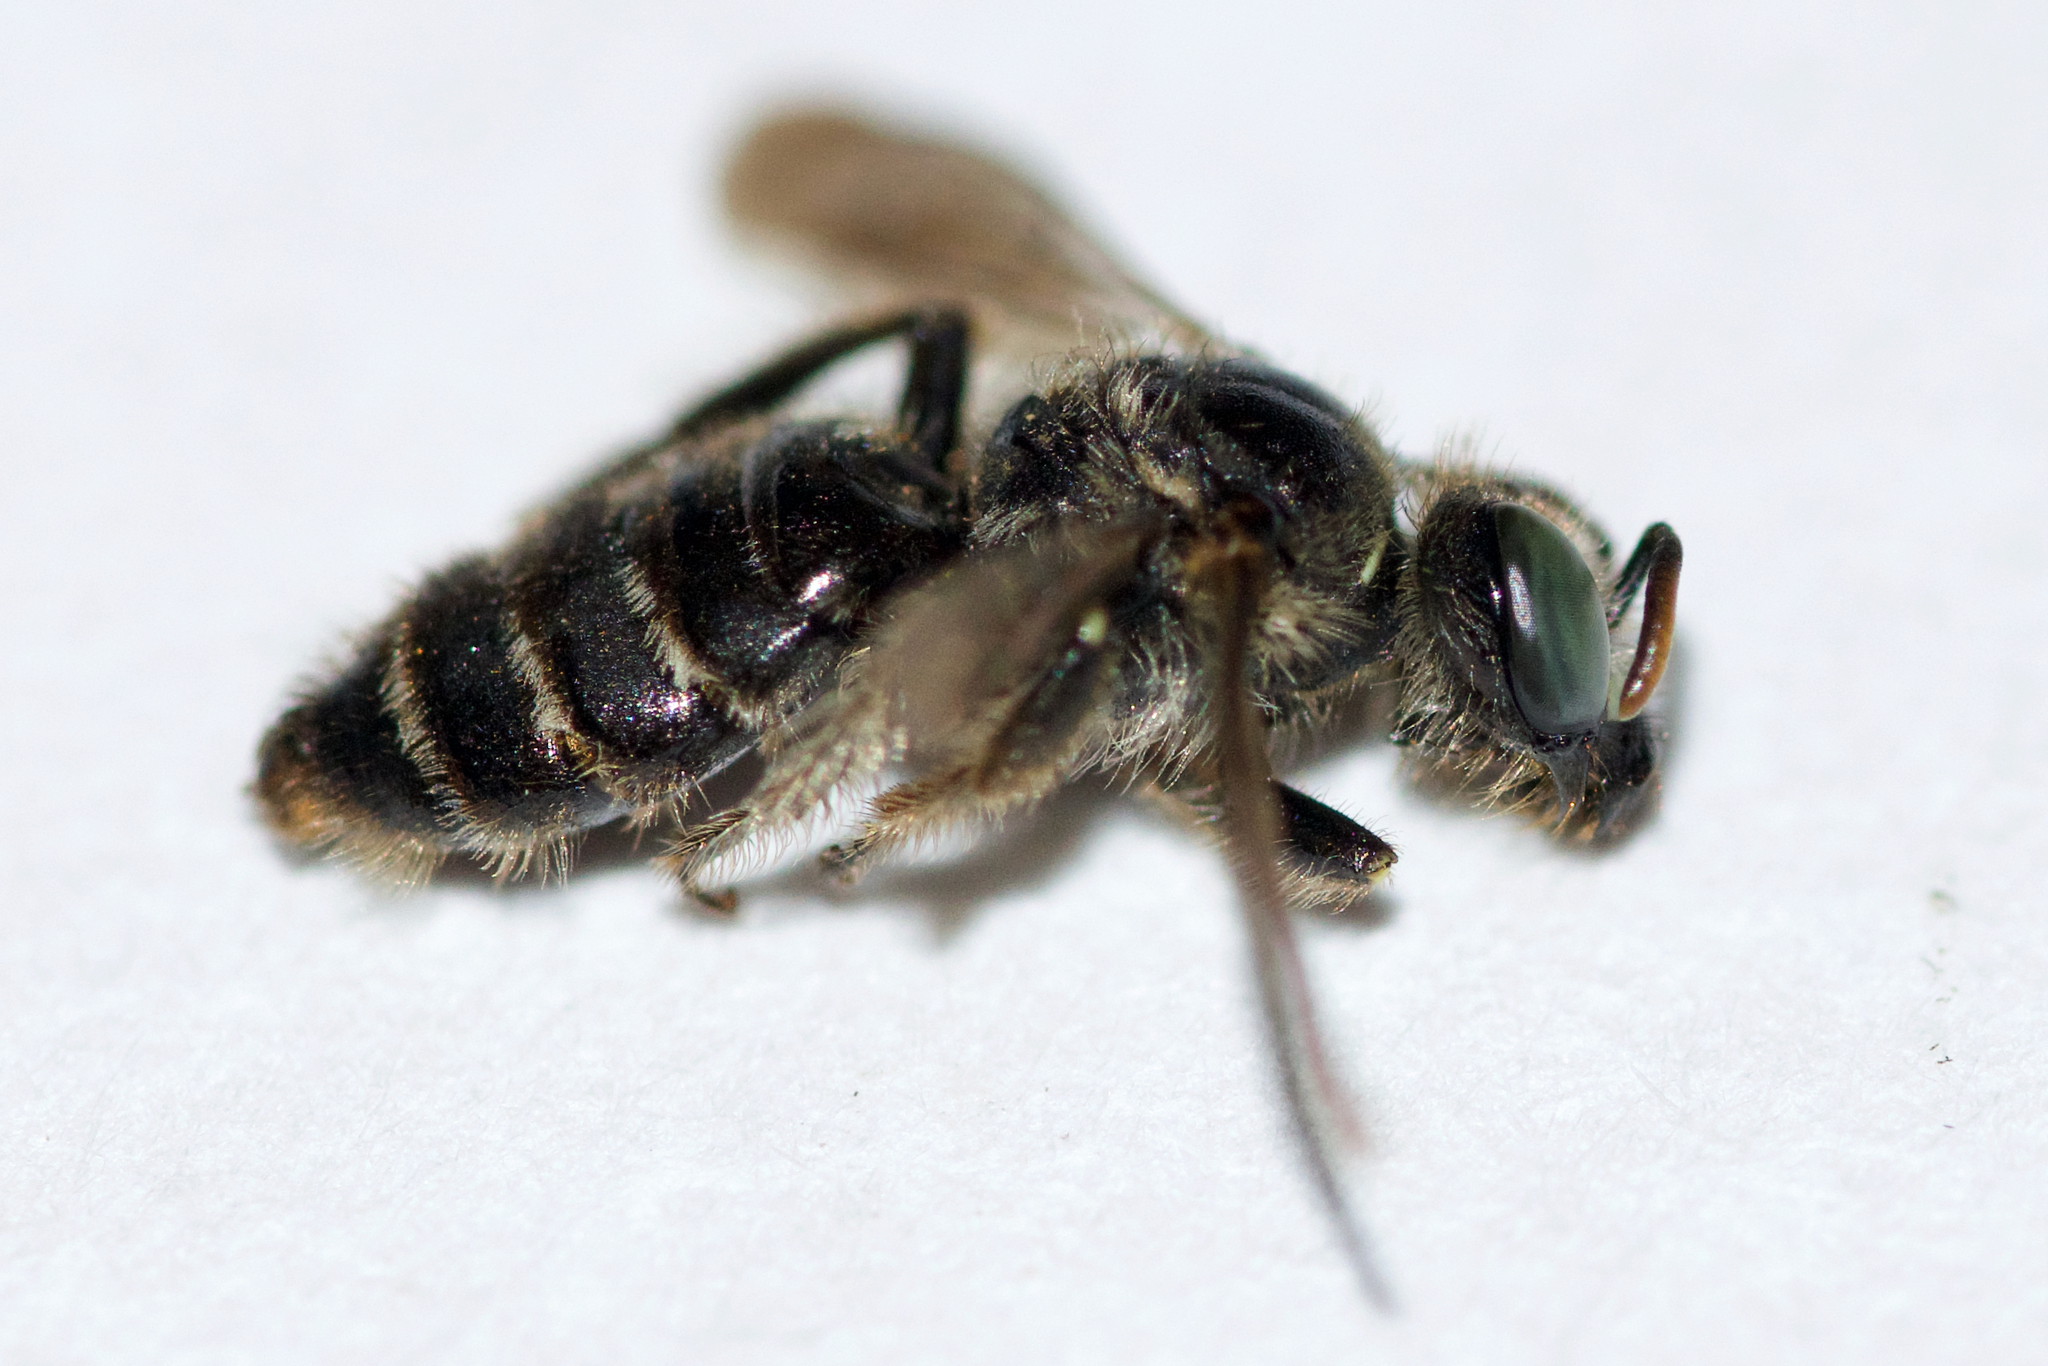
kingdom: Animalia
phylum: Arthropoda
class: Insecta
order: Hymenoptera
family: Andrenidae
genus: Calliopsis
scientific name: Calliopsis andreniformis
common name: Eastern calliopsis bee
